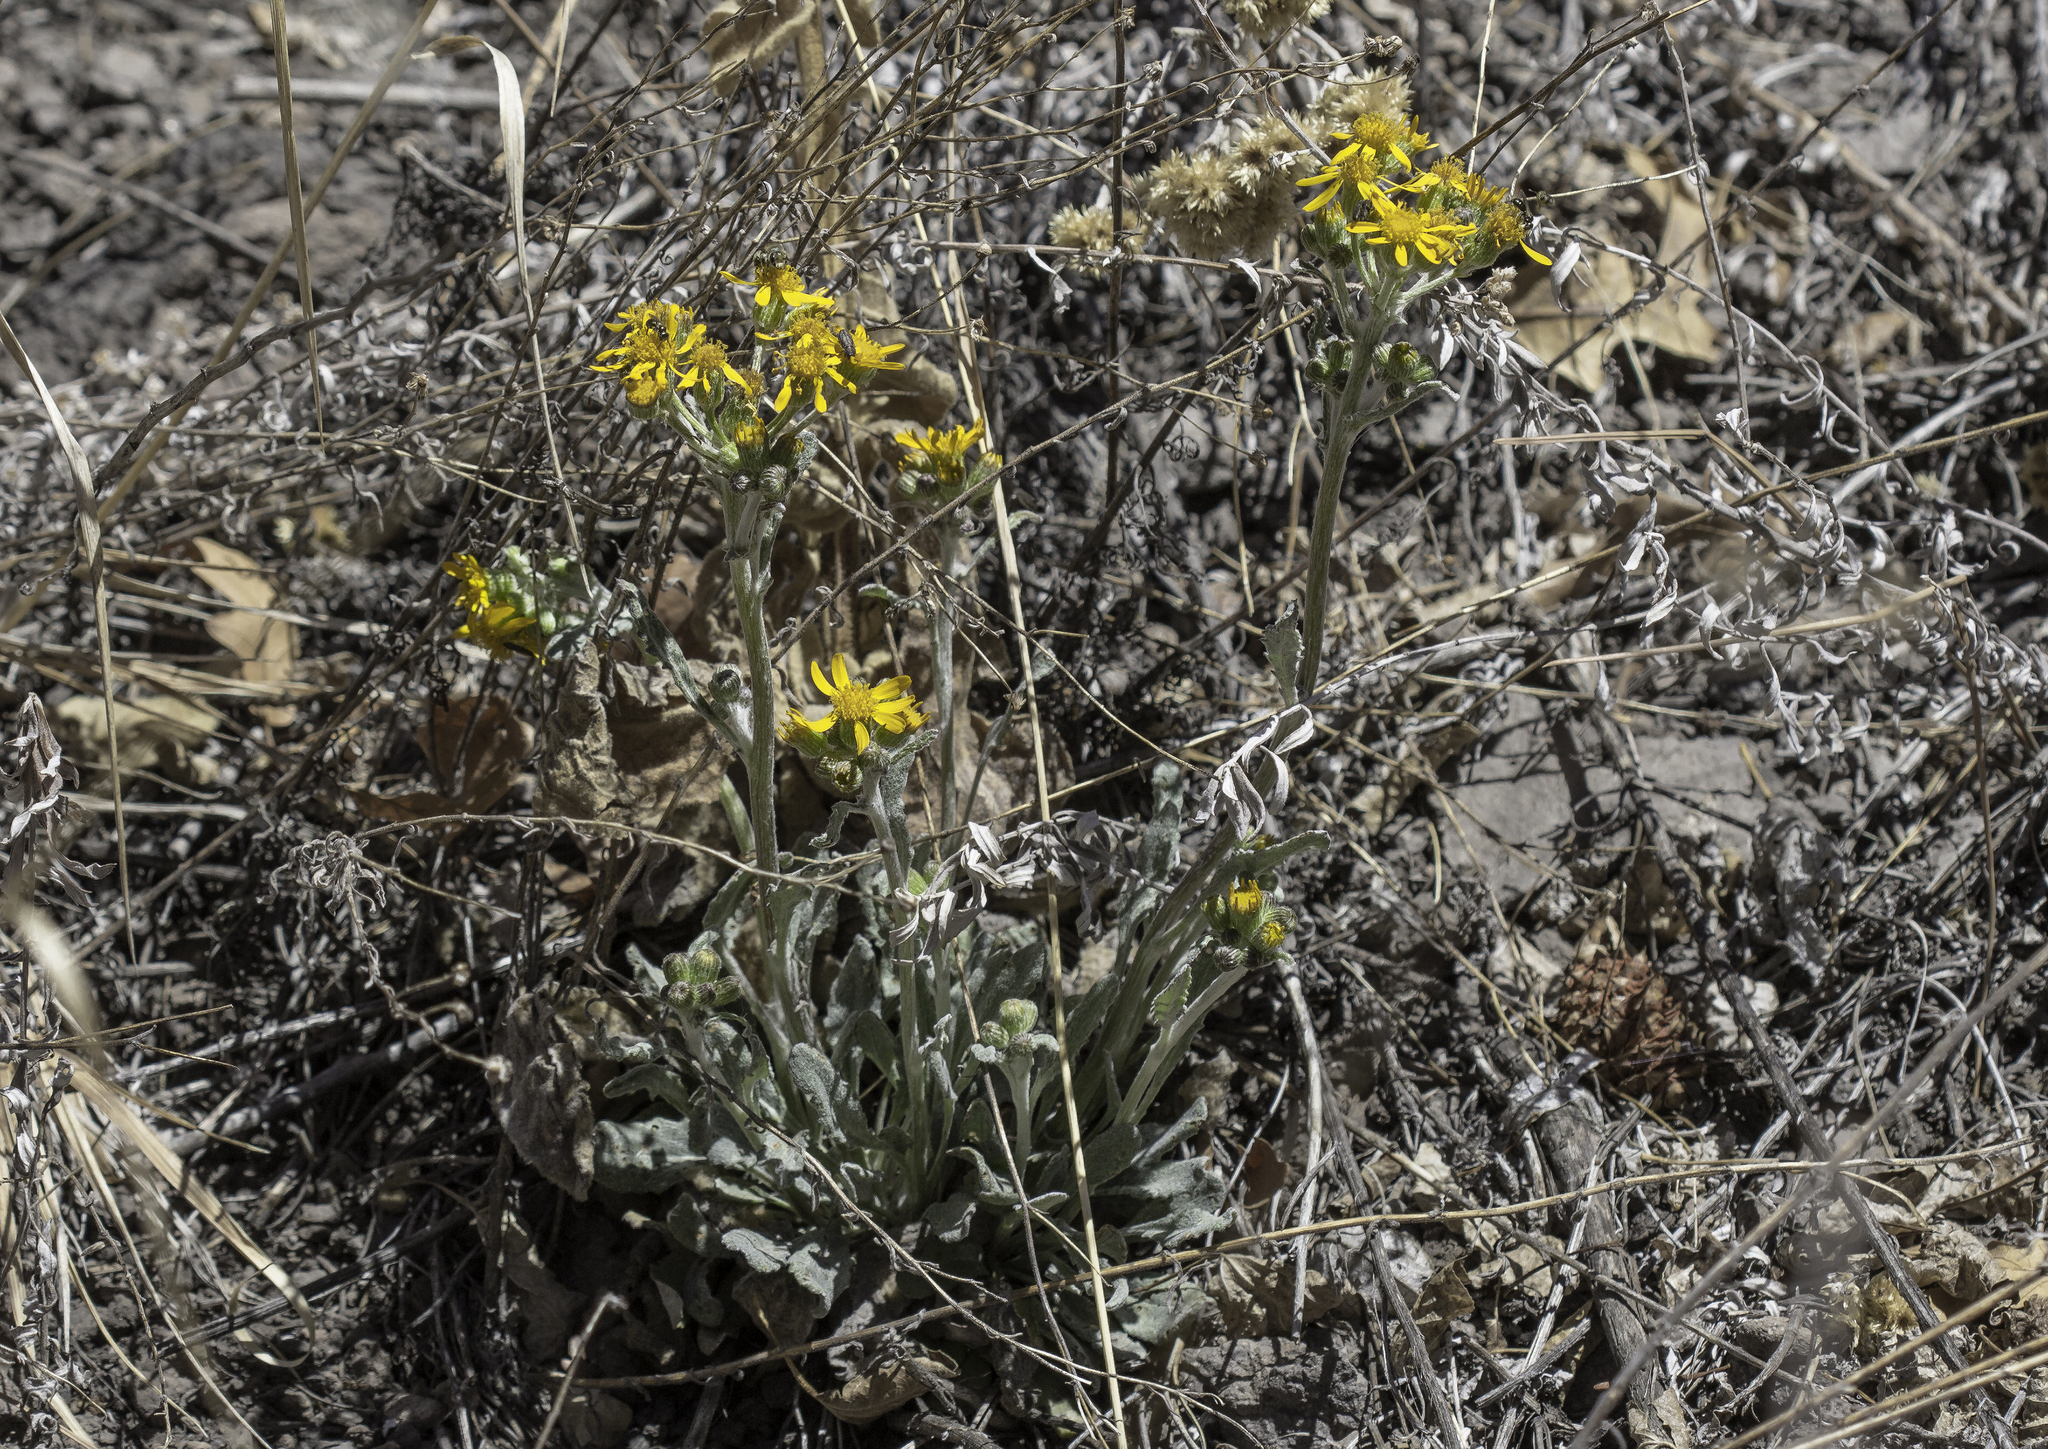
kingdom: Plantae
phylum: Tracheophyta
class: Magnoliopsida
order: Asterales
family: Asteraceae
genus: Packera
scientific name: Packera neomexicana
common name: New mexico butterweed
